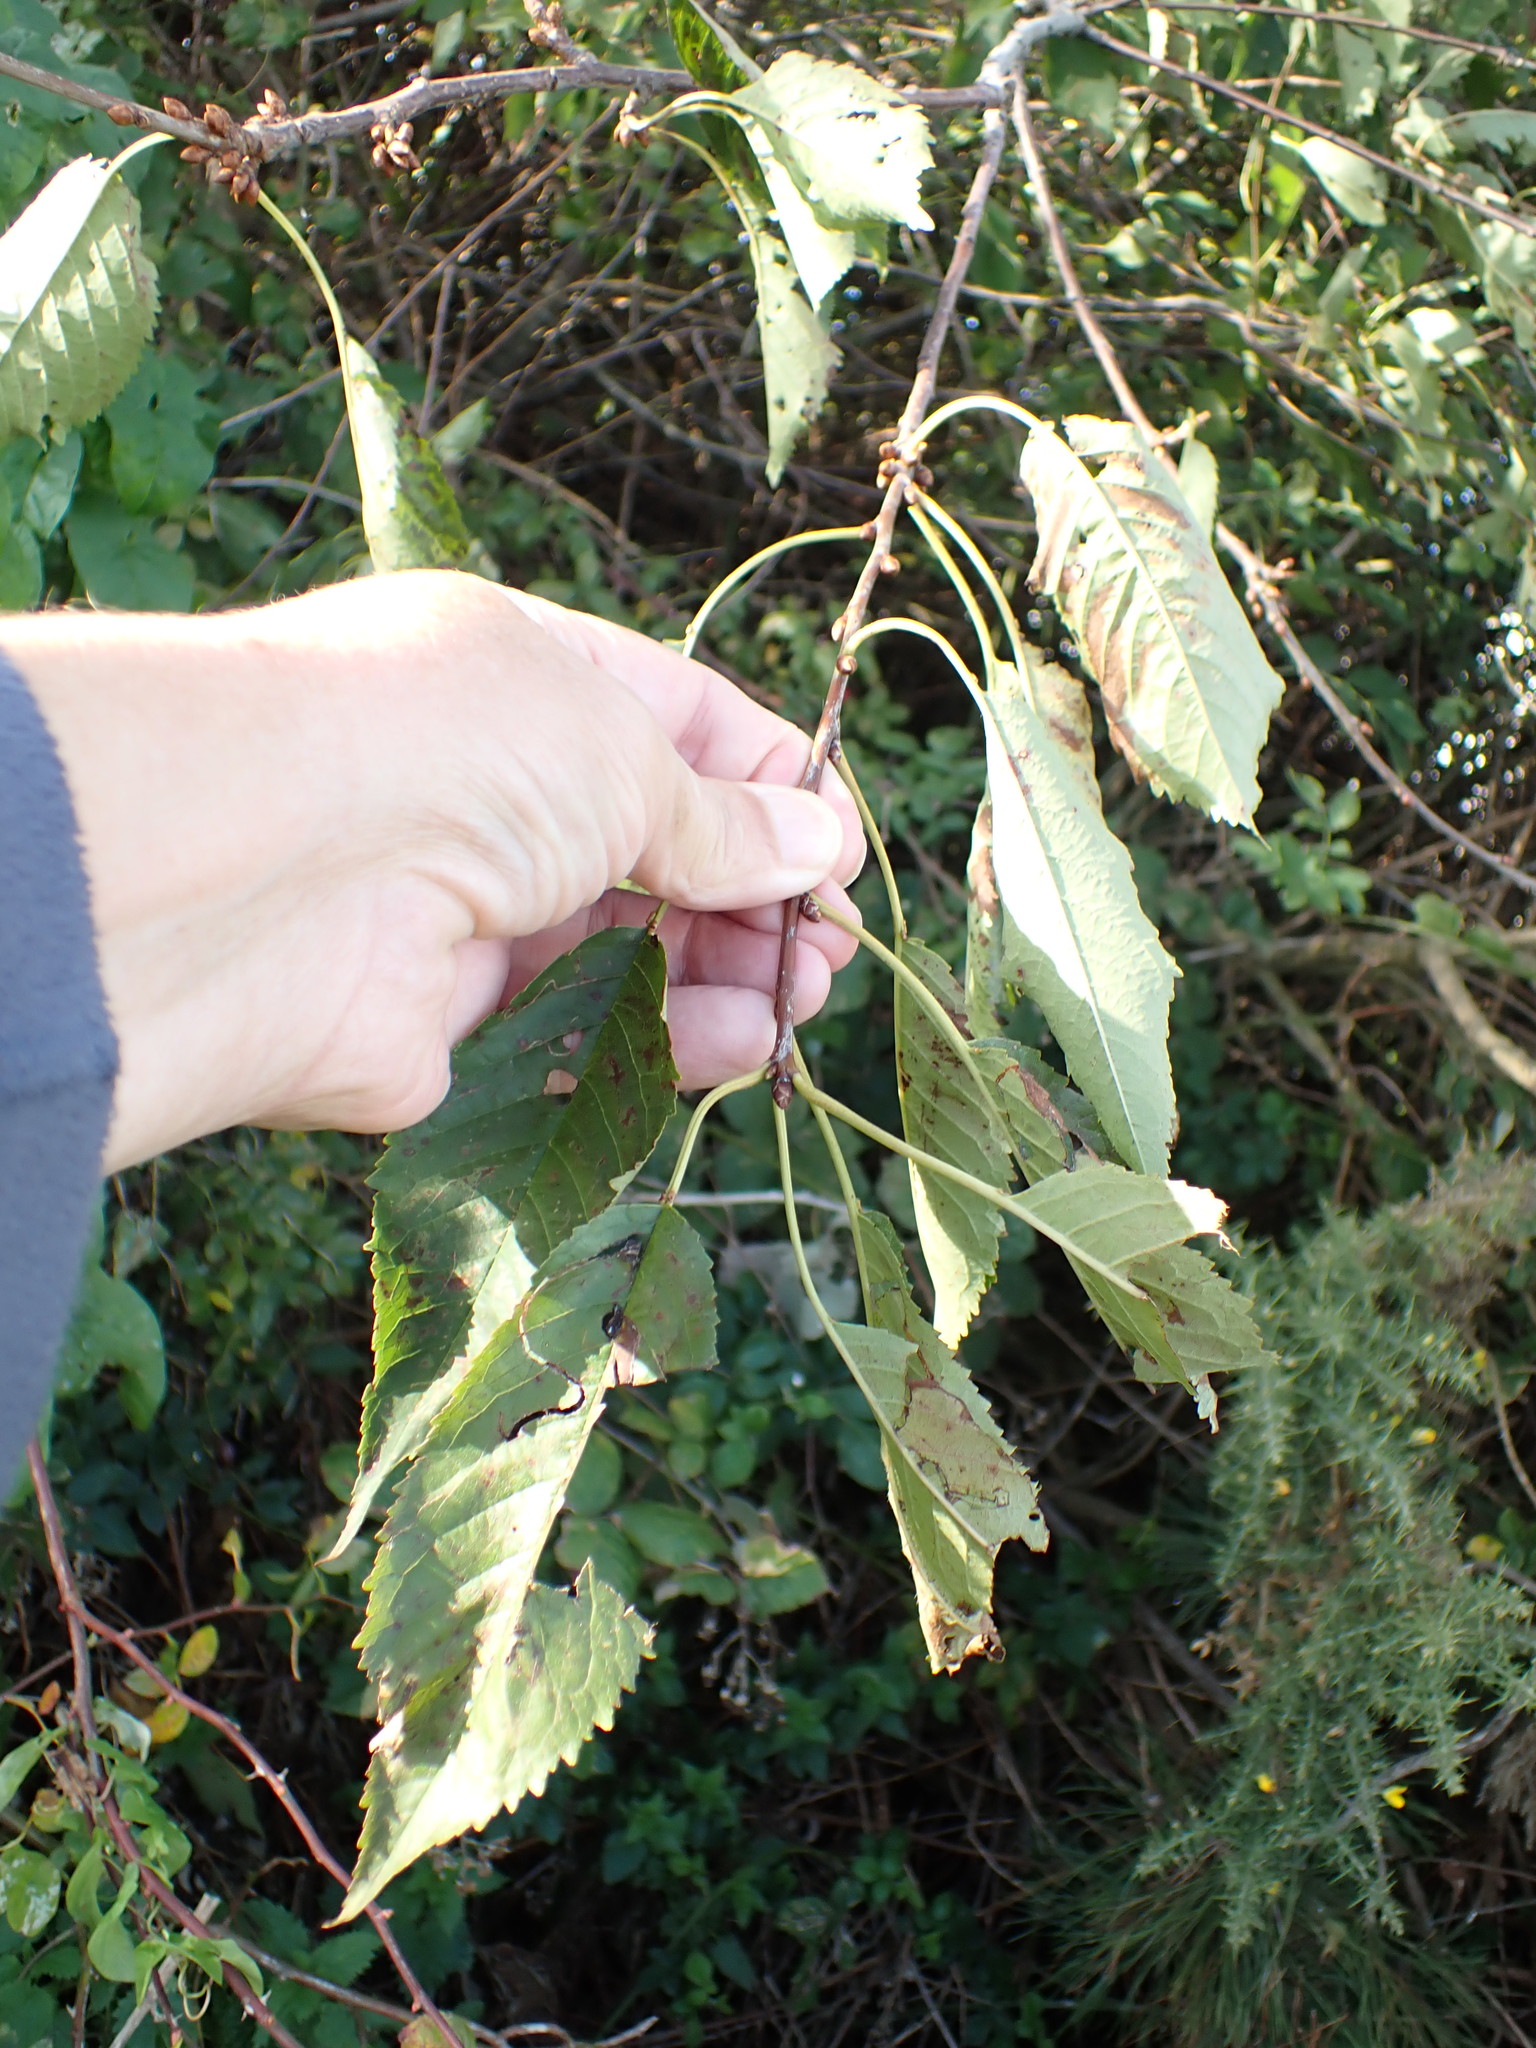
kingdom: Plantae
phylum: Tracheophyta
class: Magnoliopsida
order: Rosales
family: Rosaceae
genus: Prunus
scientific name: Prunus avium
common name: Sweet cherry
